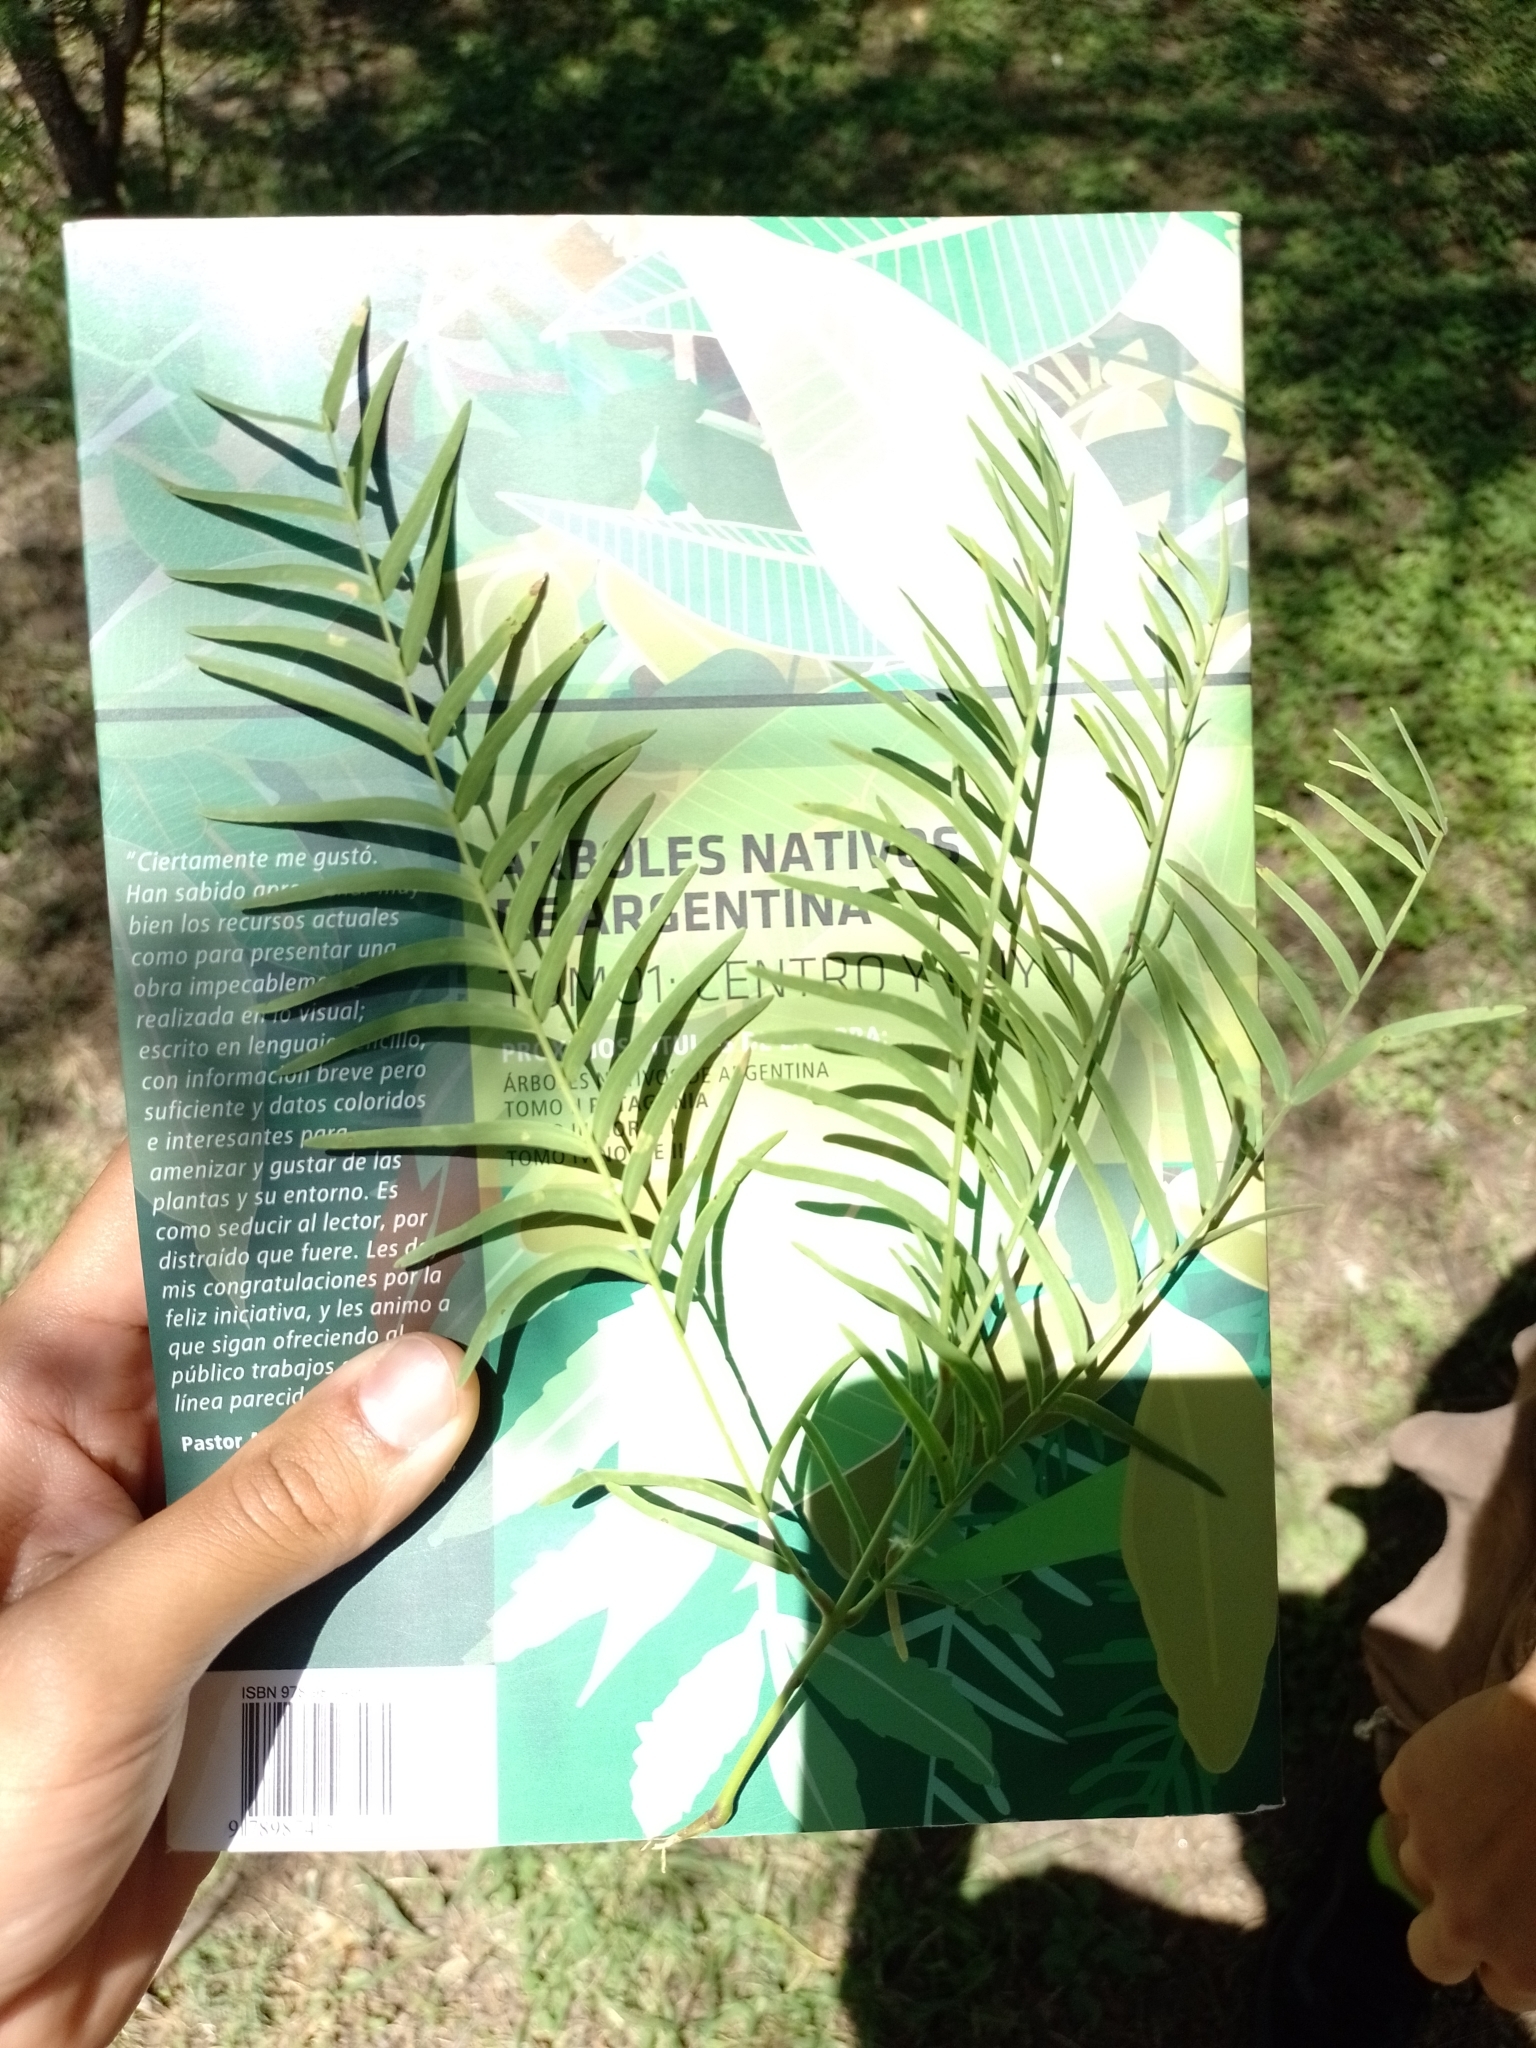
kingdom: Plantae
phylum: Tracheophyta
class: Magnoliopsida
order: Fabales
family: Fabaceae
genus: Prosopis
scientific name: Prosopis chilensis
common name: Chilean algarrobo
